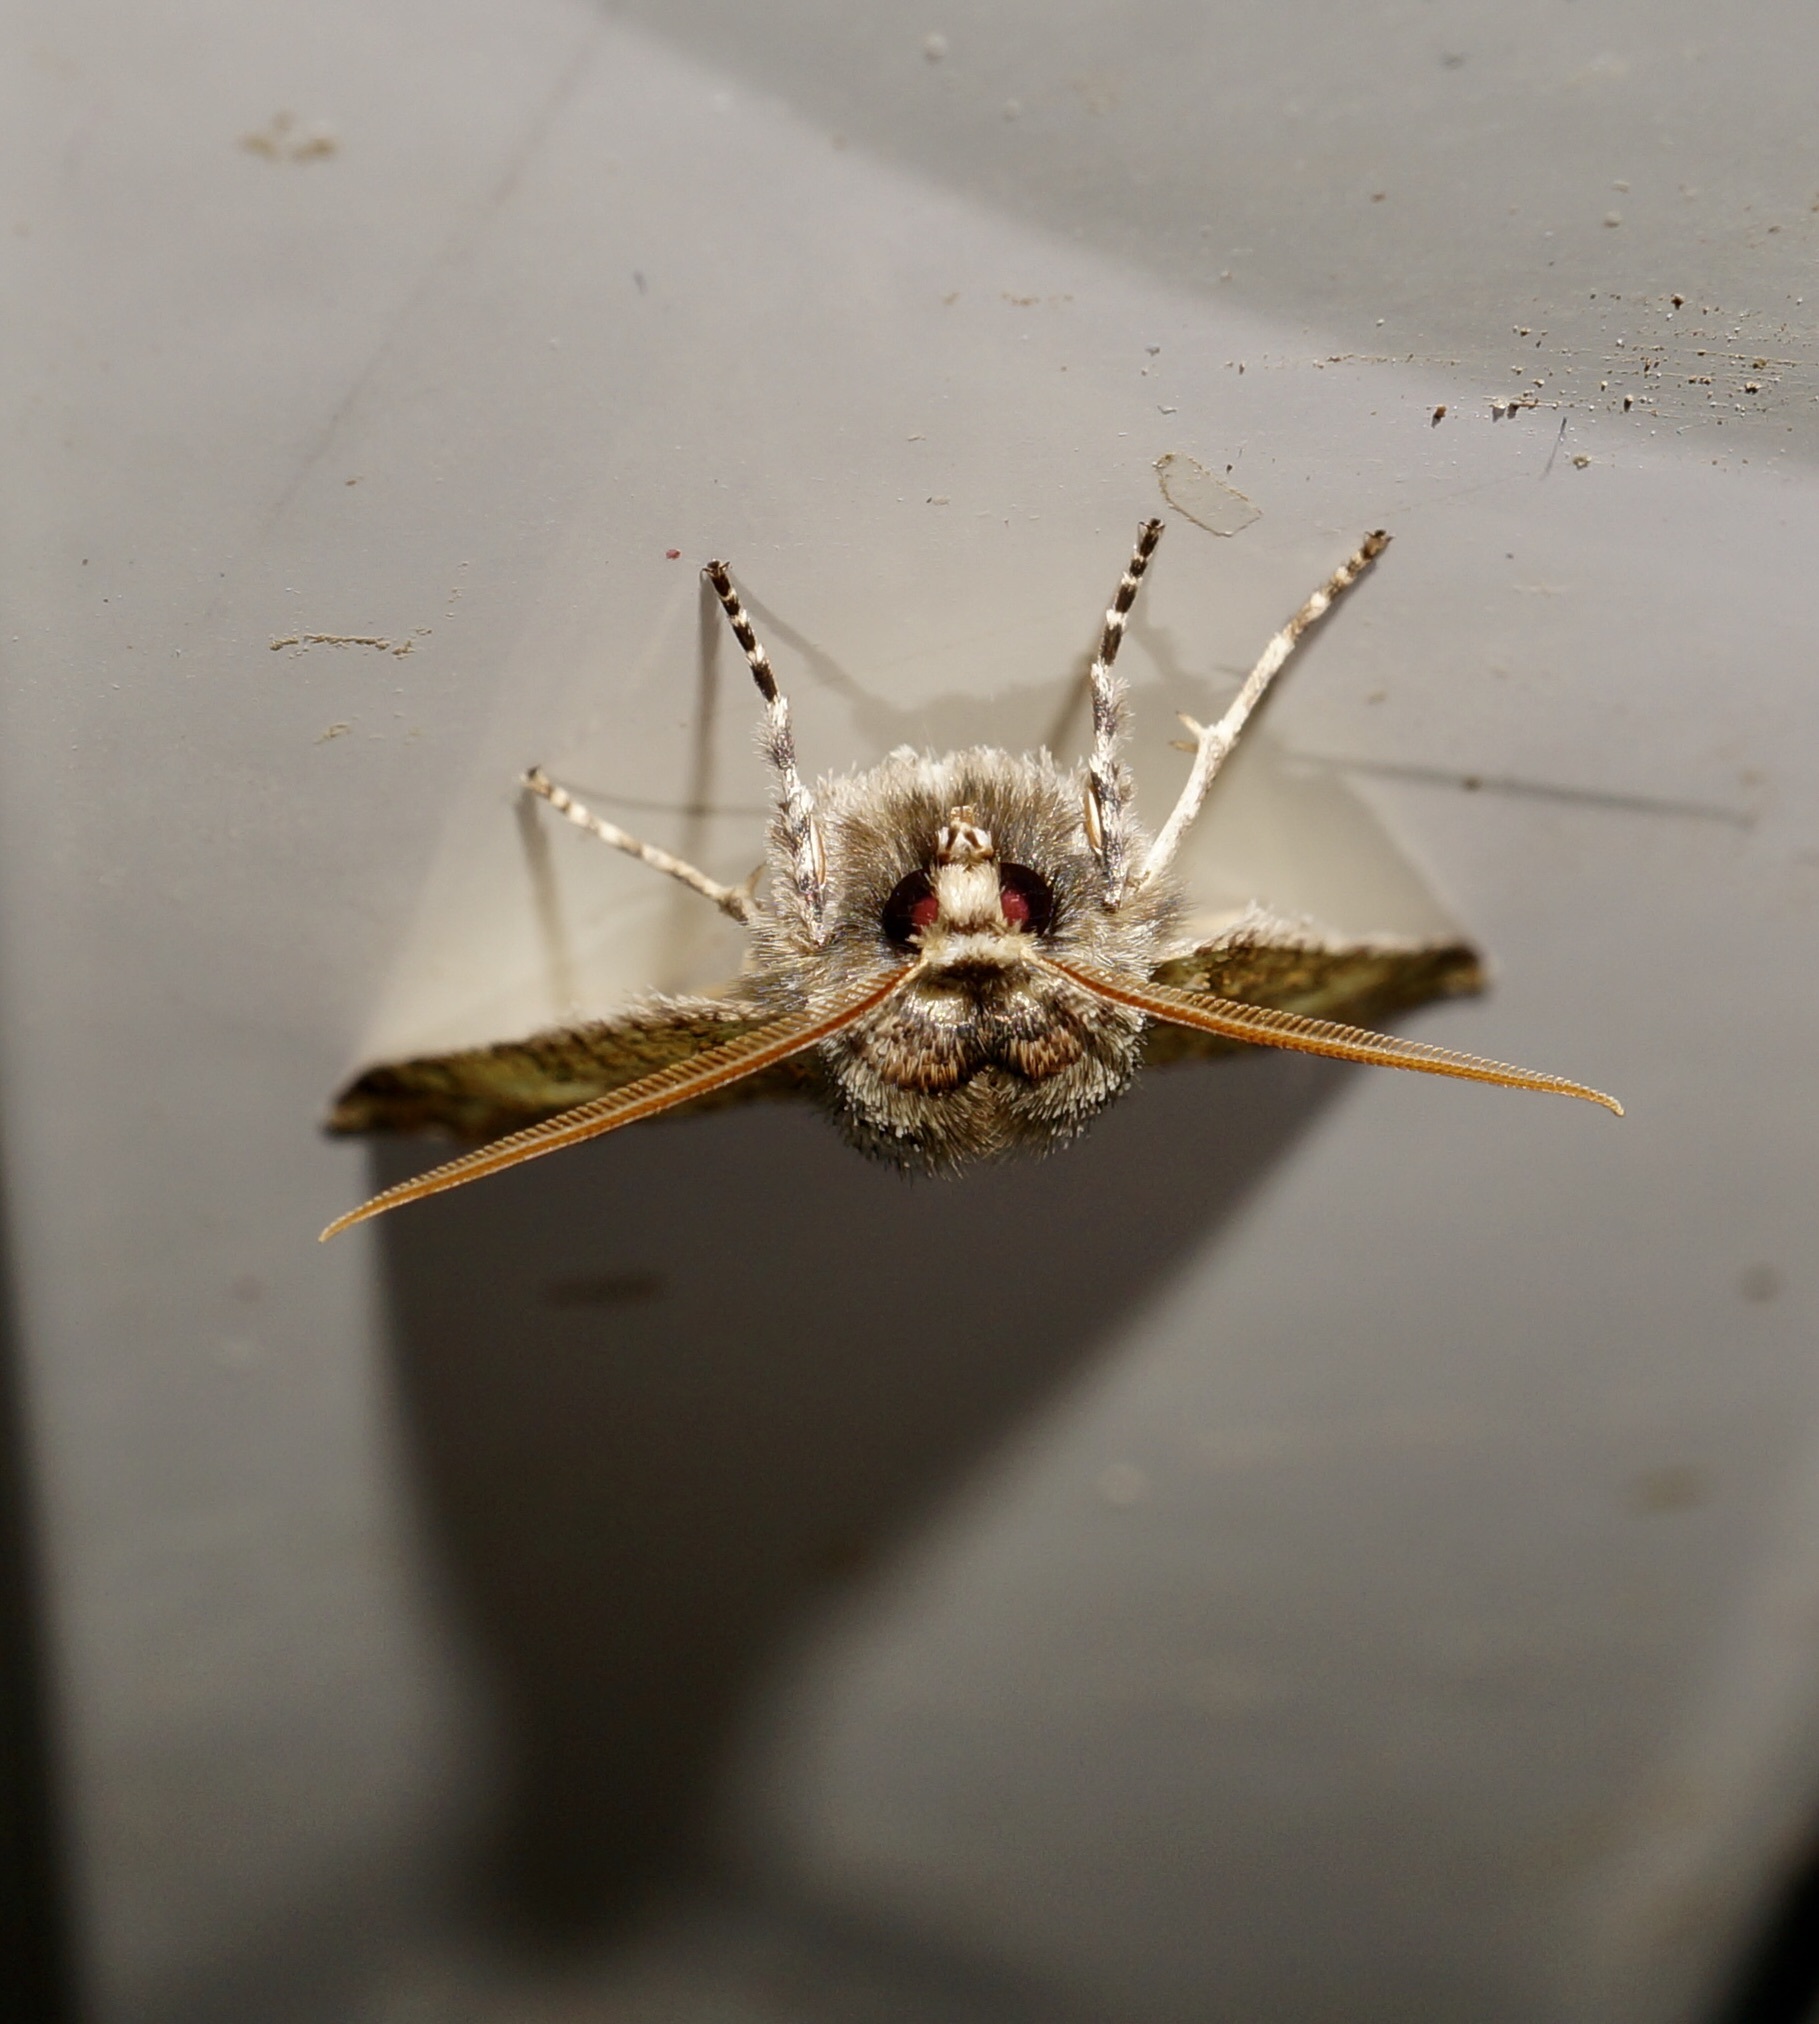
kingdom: Animalia
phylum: Arthropoda
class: Insecta
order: Lepidoptera
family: Geometridae
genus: Declana
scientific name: Declana floccosa
